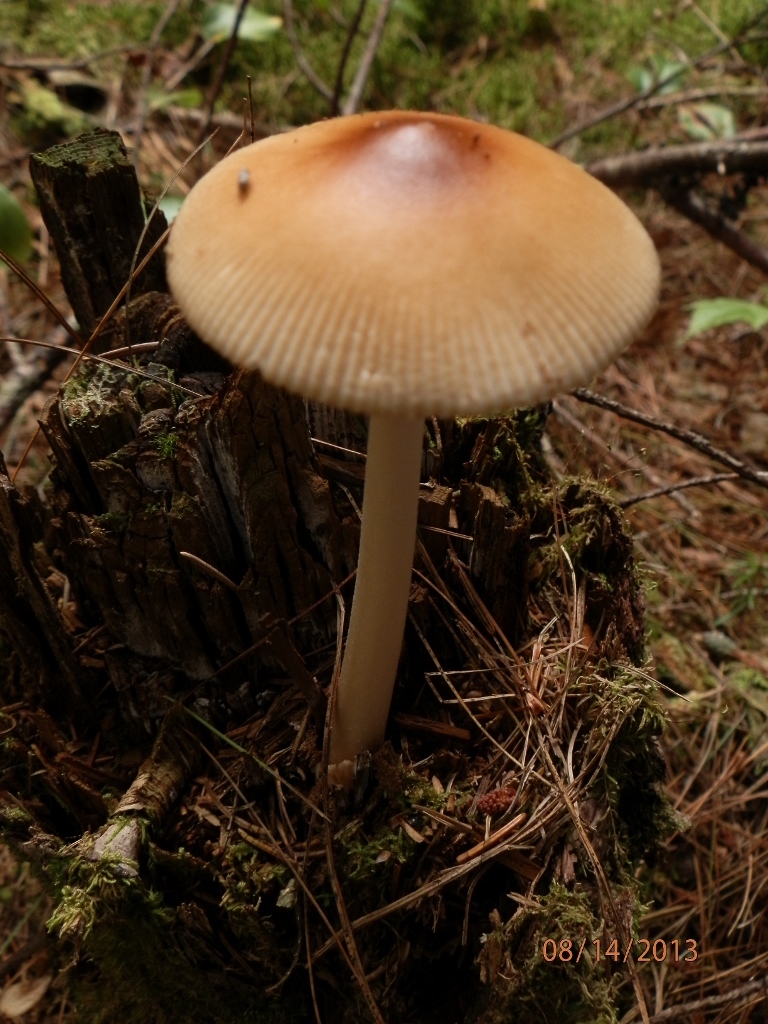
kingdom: Fungi
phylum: Basidiomycota
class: Agaricomycetes
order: Agaricales
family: Amanitaceae
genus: Amanita
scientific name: Amanita fulva
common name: Tawny grisette
